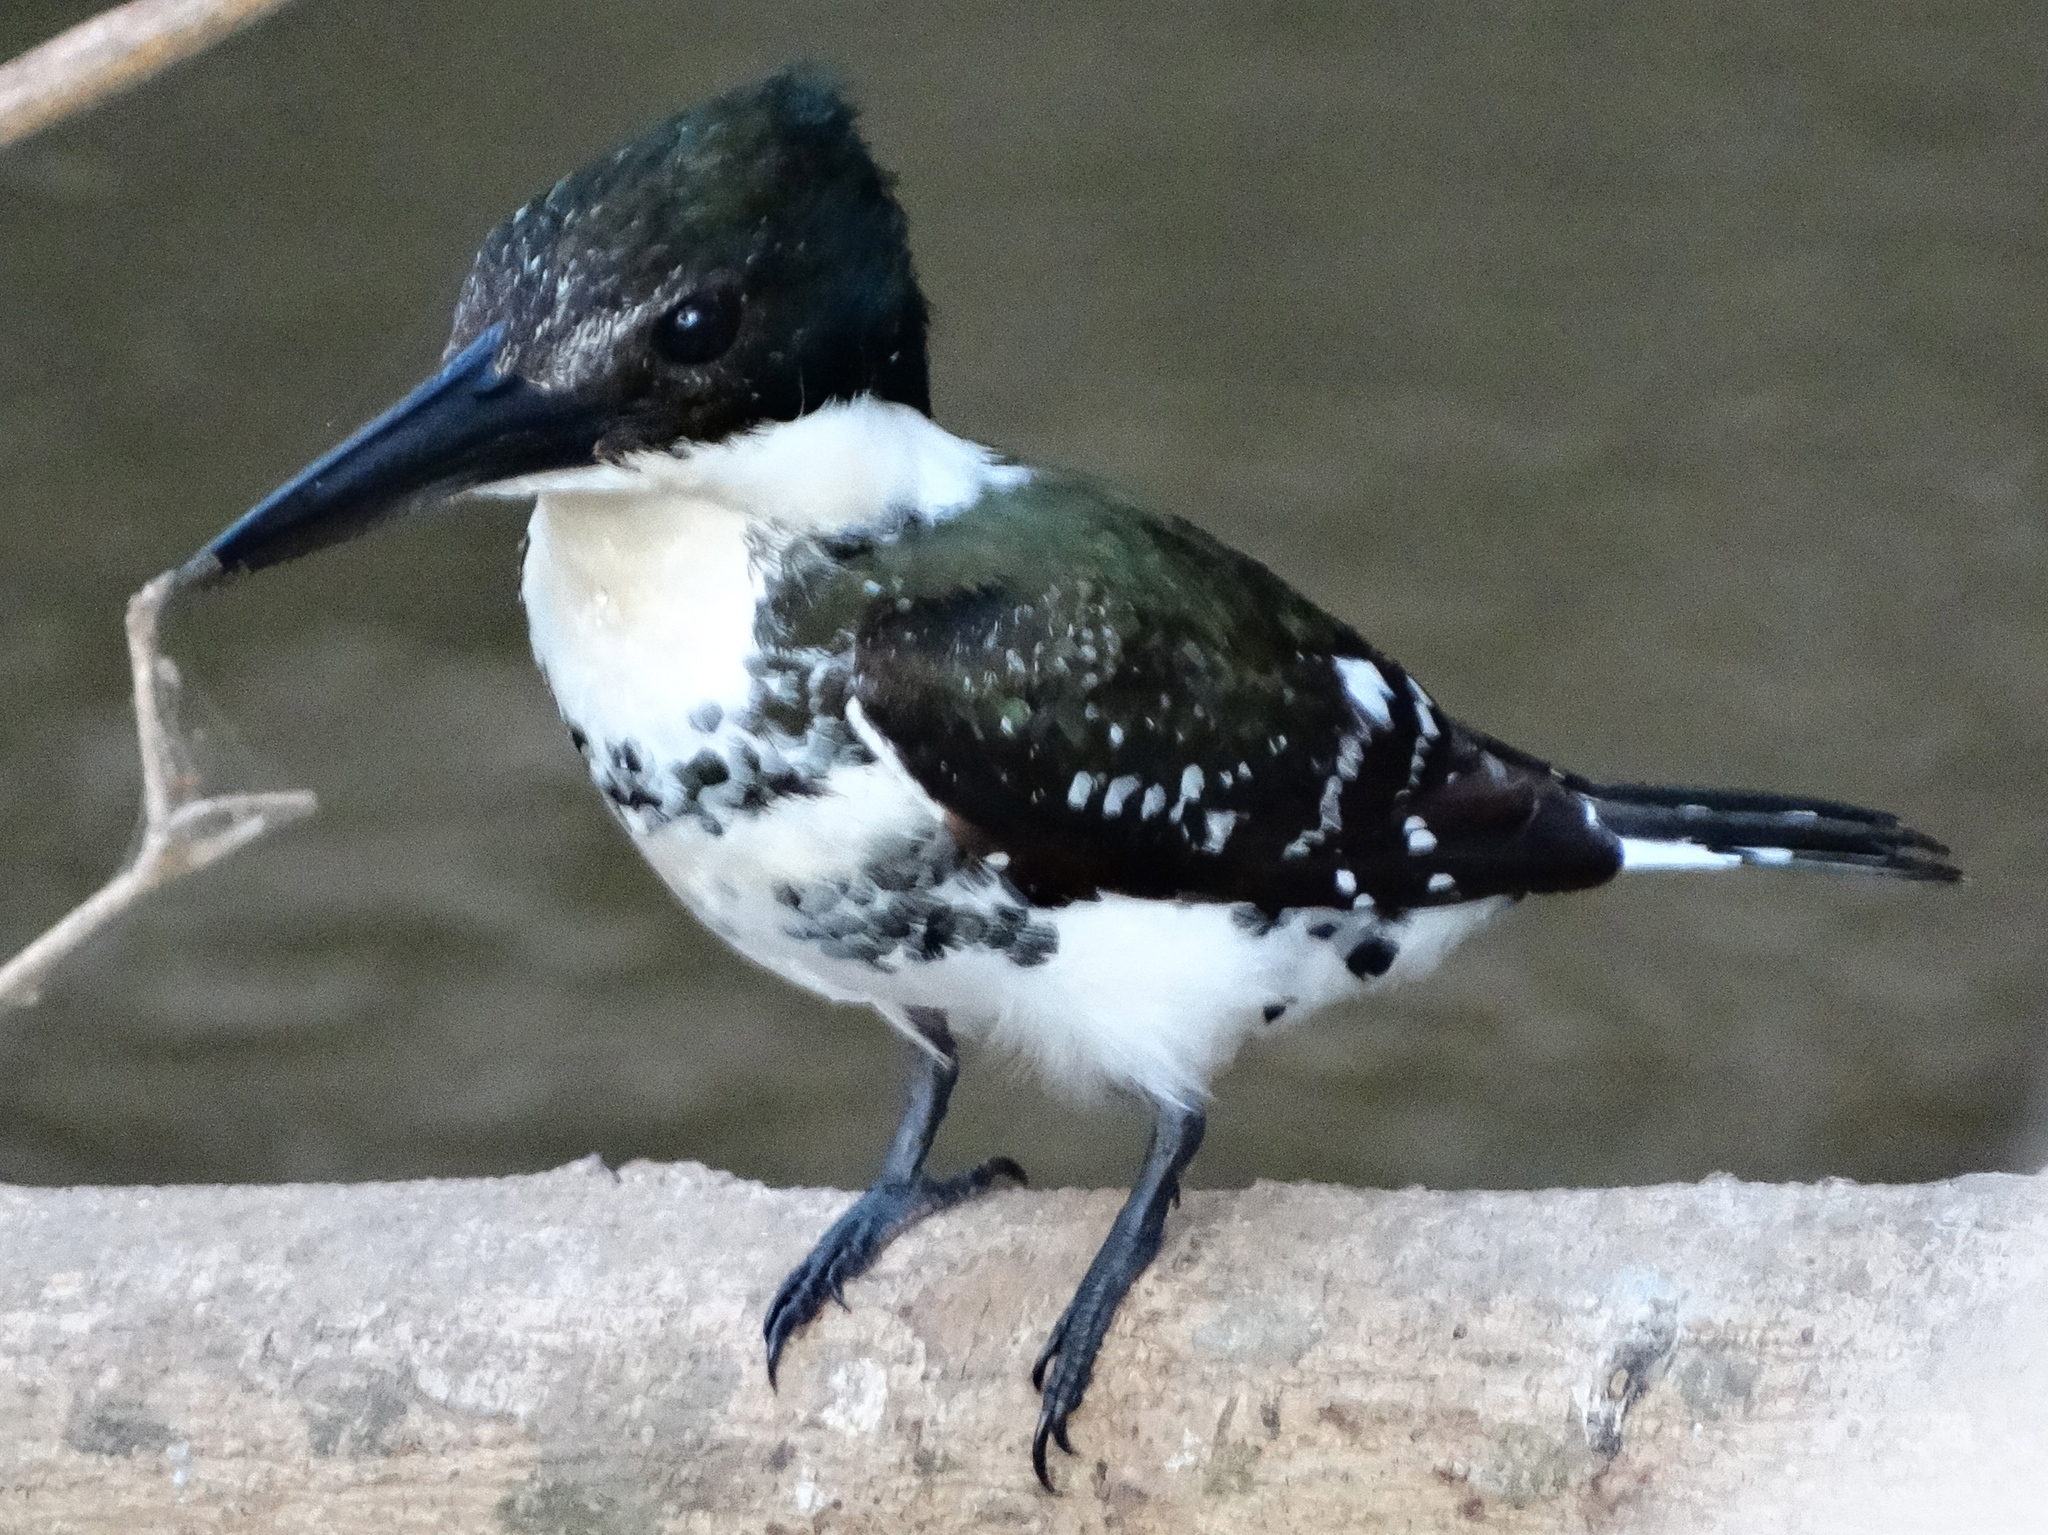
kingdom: Animalia
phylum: Chordata
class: Aves
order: Coraciiformes
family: Alcedinidae
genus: Chloroceryle
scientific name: Chloroceryle americana
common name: Green kingfisher
